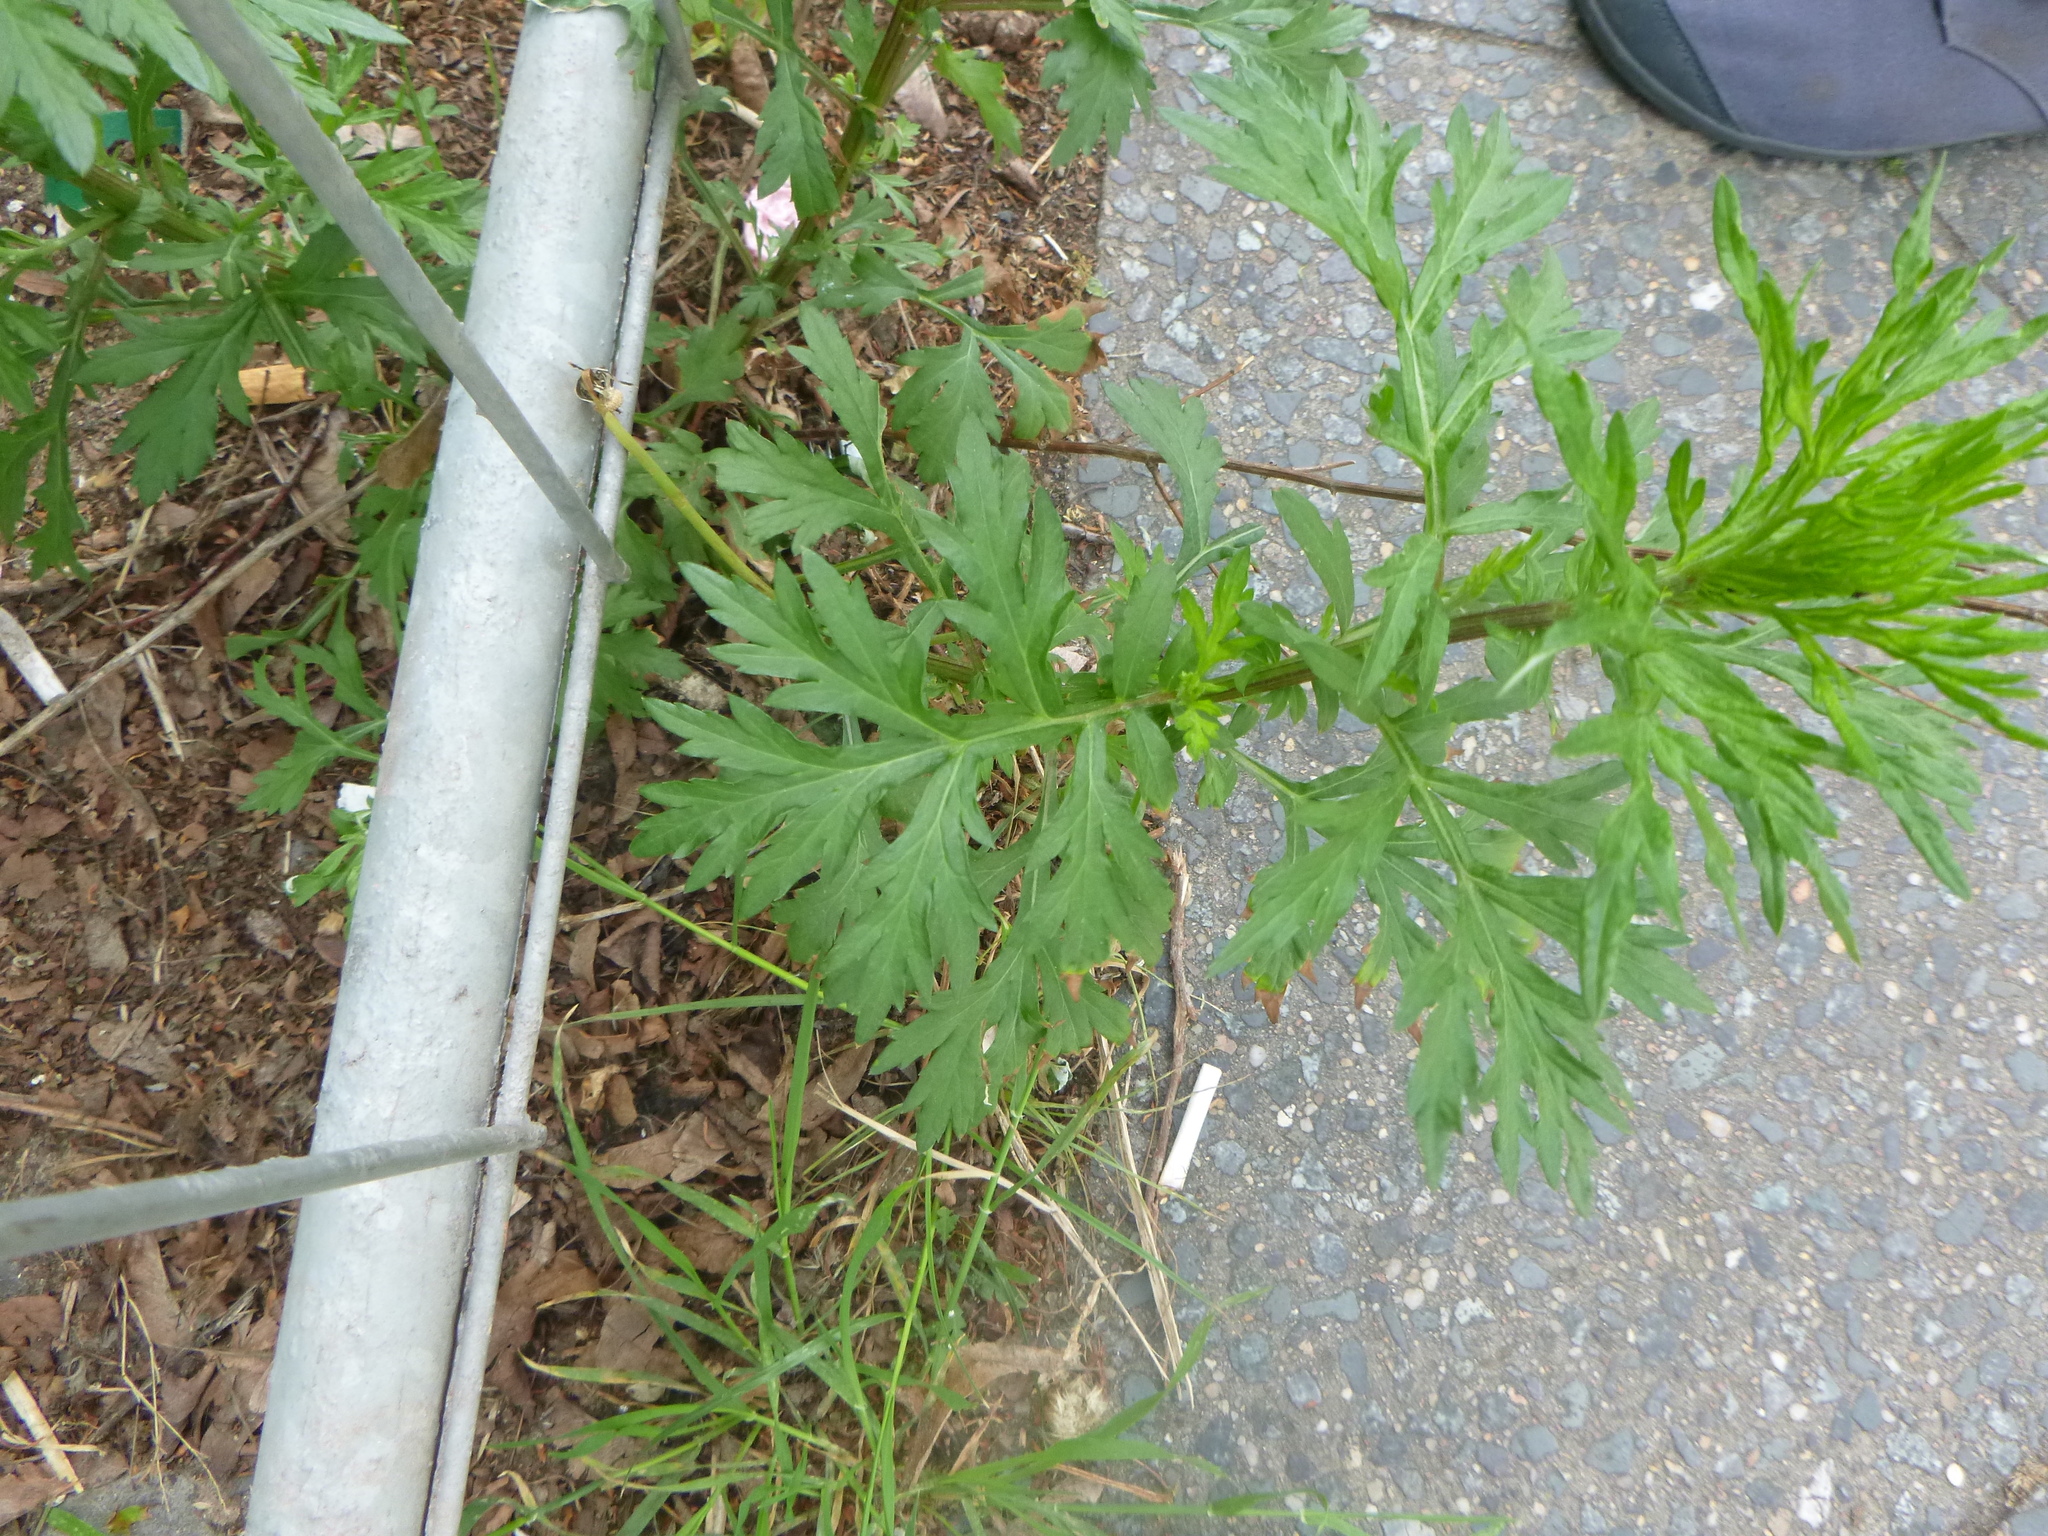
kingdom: Plantae
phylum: Tracheophyta
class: Magnoliopsida
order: Asterales
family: Asteraceae
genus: Artemisia
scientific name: Artemisia vulgaris
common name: Mugwort
